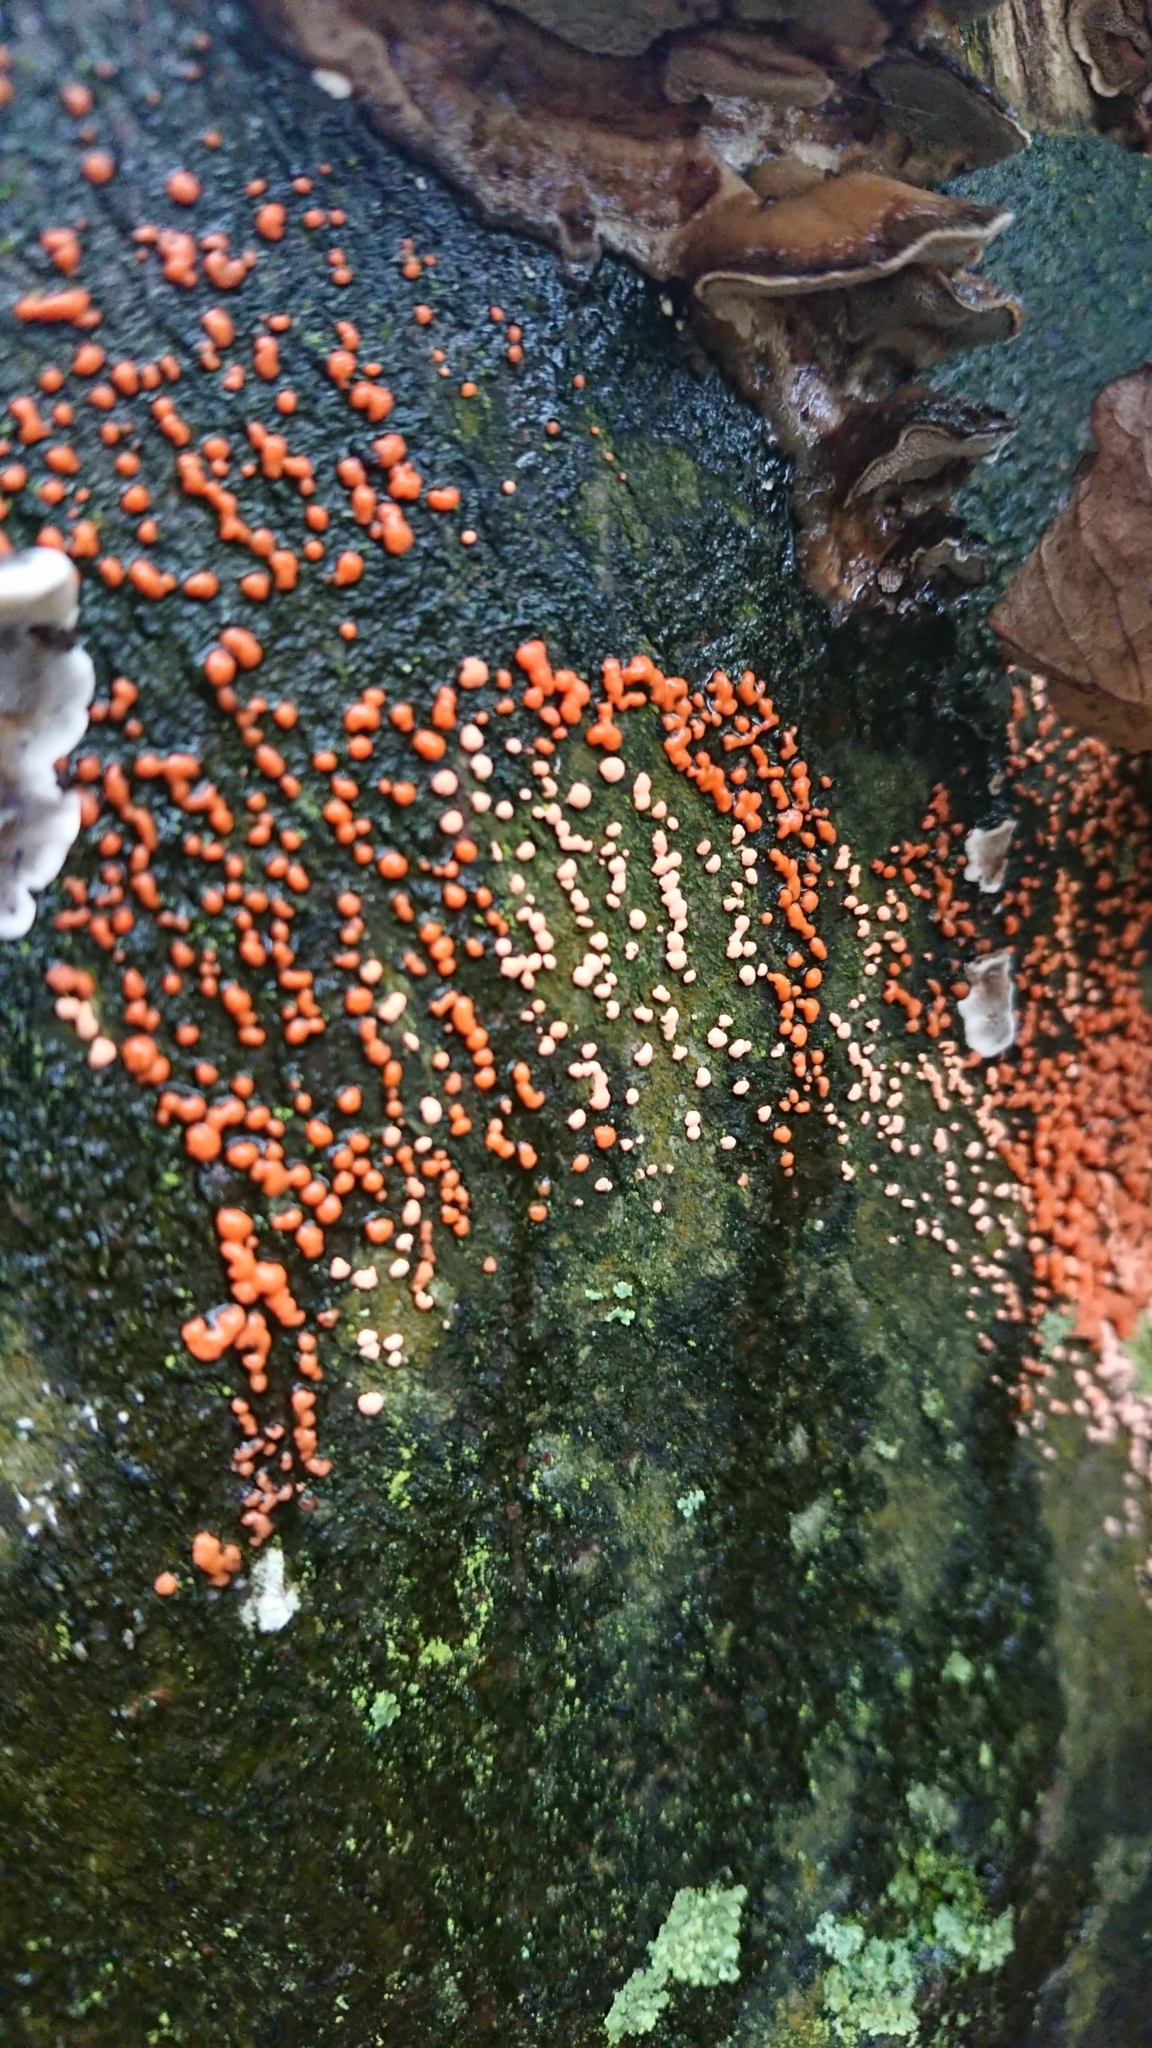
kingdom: Fungi
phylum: Ascomycota
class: Sordariomycetes
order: Hypocreales
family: Nectriaceae
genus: Nectria
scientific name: Nectria cinnabarina
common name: Coral spot
